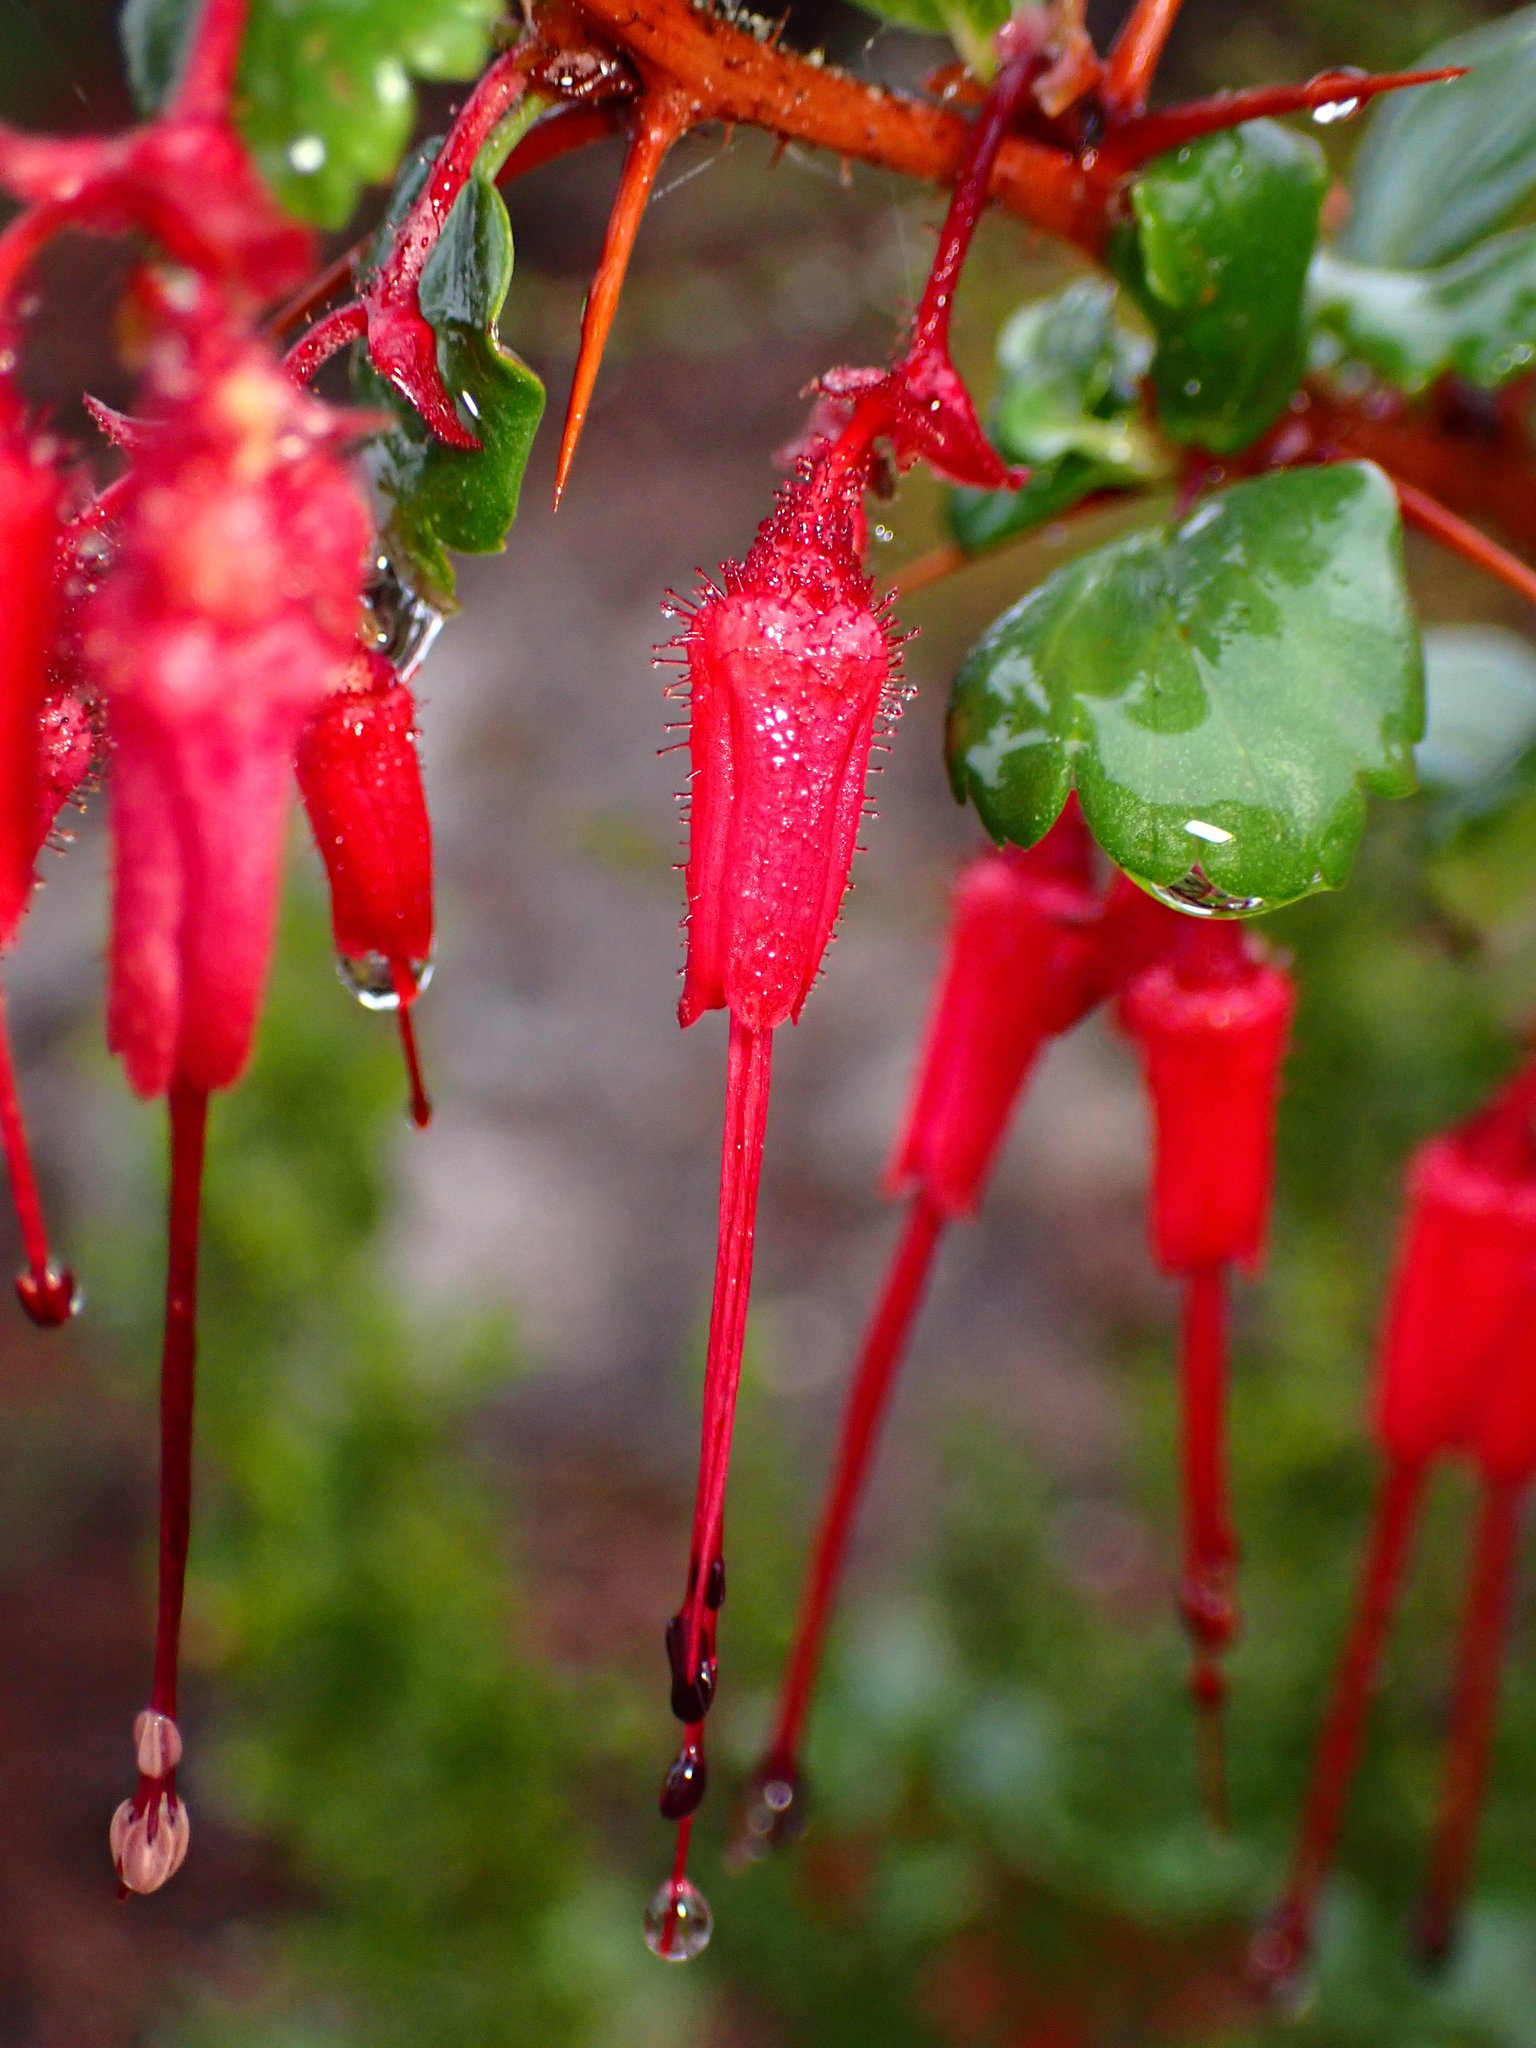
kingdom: Plantae
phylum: Tracheophyta
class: Magnoliopsida
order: Saxifragales
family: Grossulariaceae
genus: Ribes
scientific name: Ribes speciosum
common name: Fuchsia-flower gooseberry
